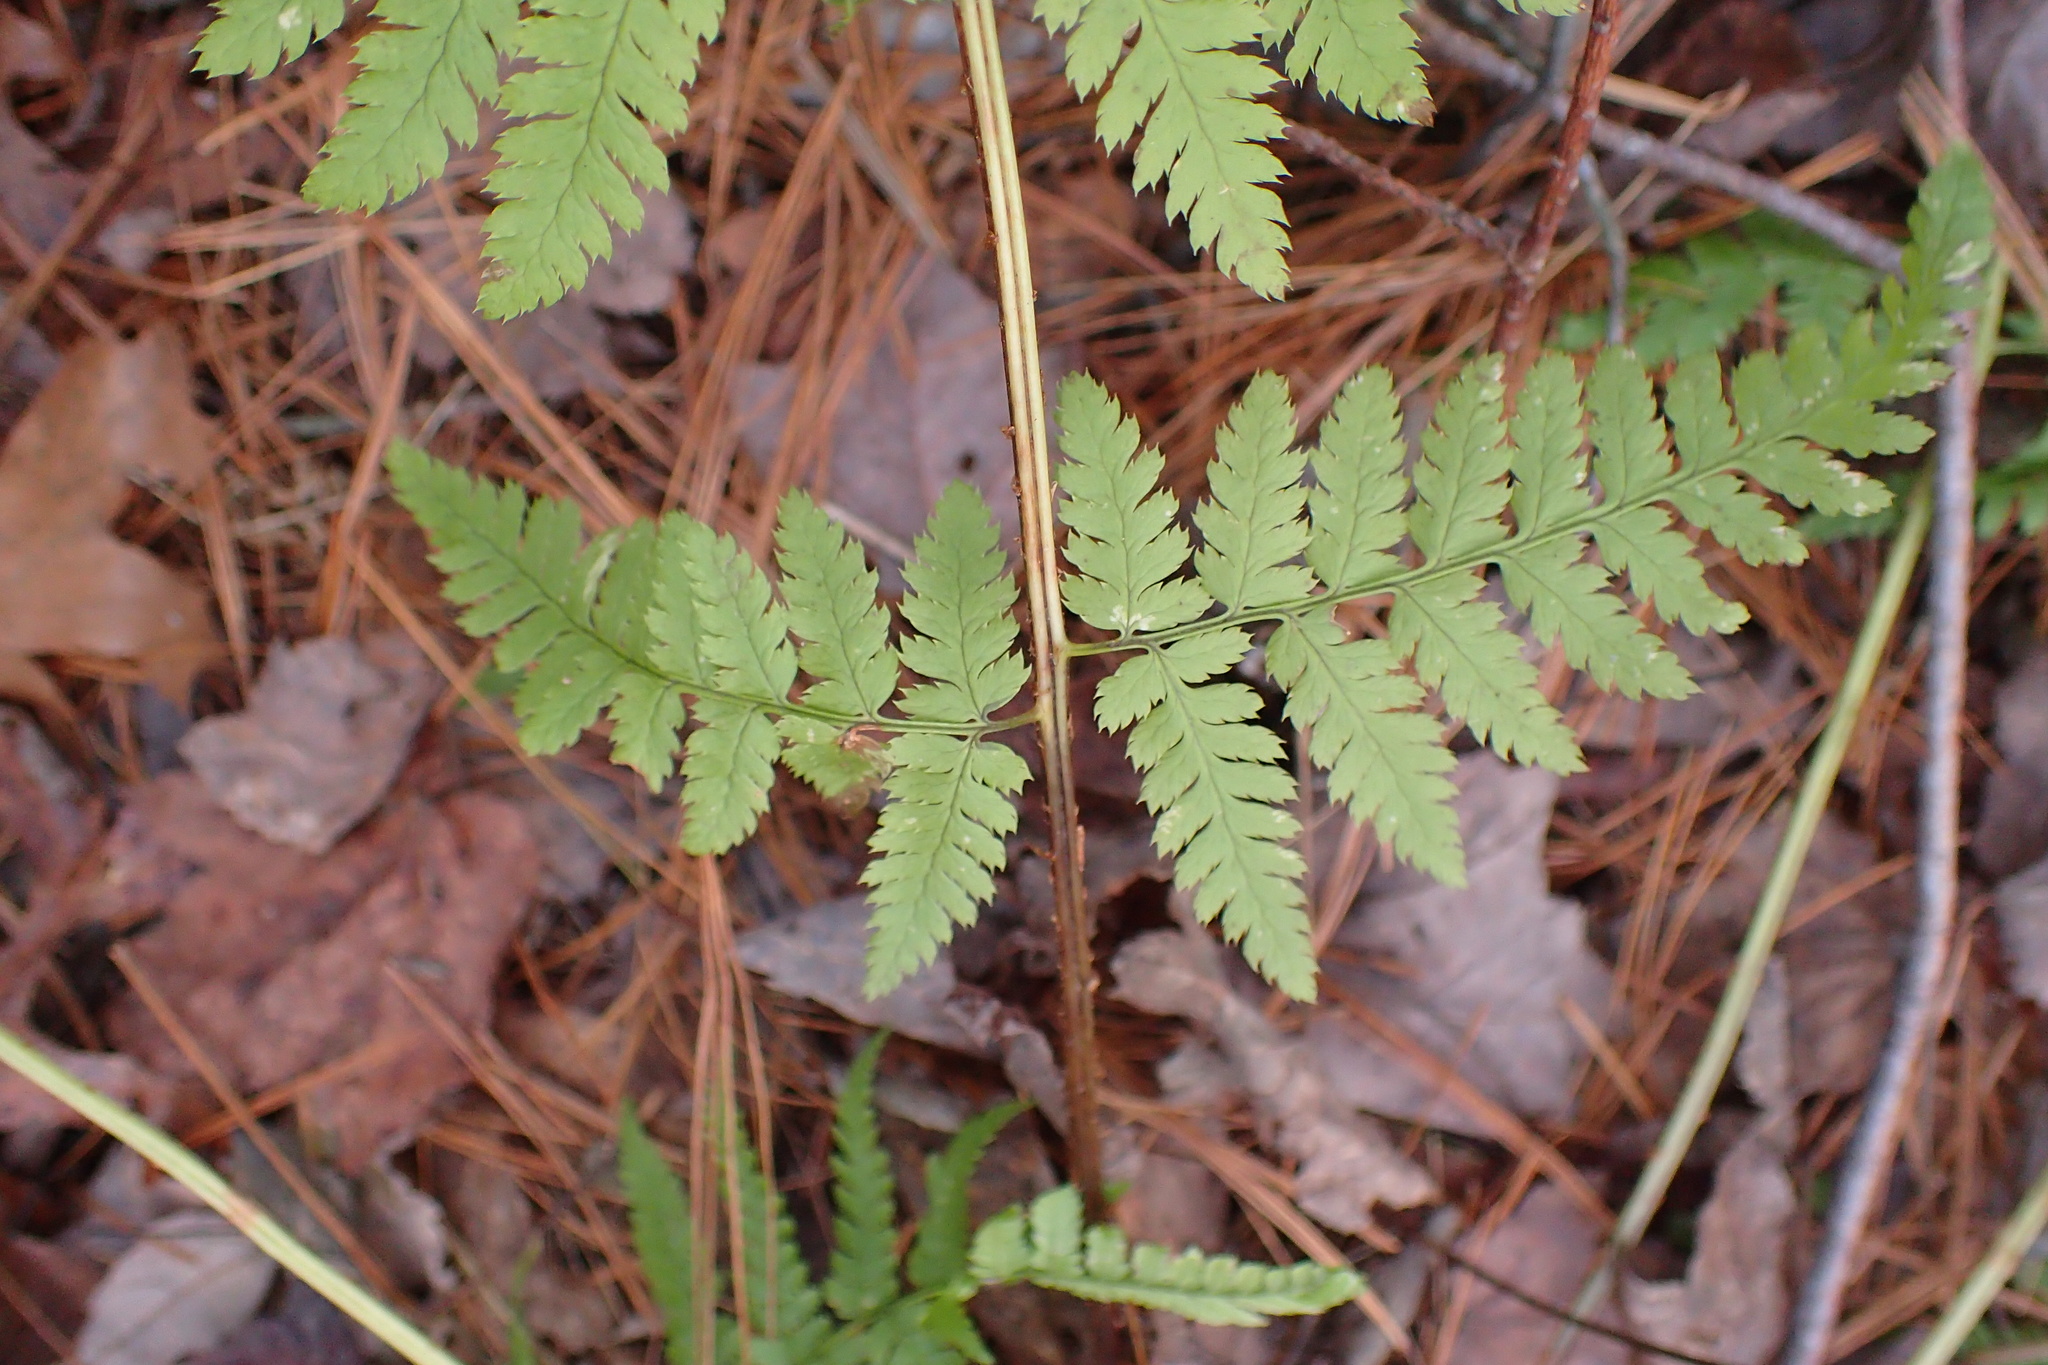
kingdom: Plantae
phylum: Tracheophyta
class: Polypodiopsida
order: Polypodiales
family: Dryopteridaceae
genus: Dryopteris
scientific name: Dryopteris carthusiana
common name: Narrow buckler-fern
